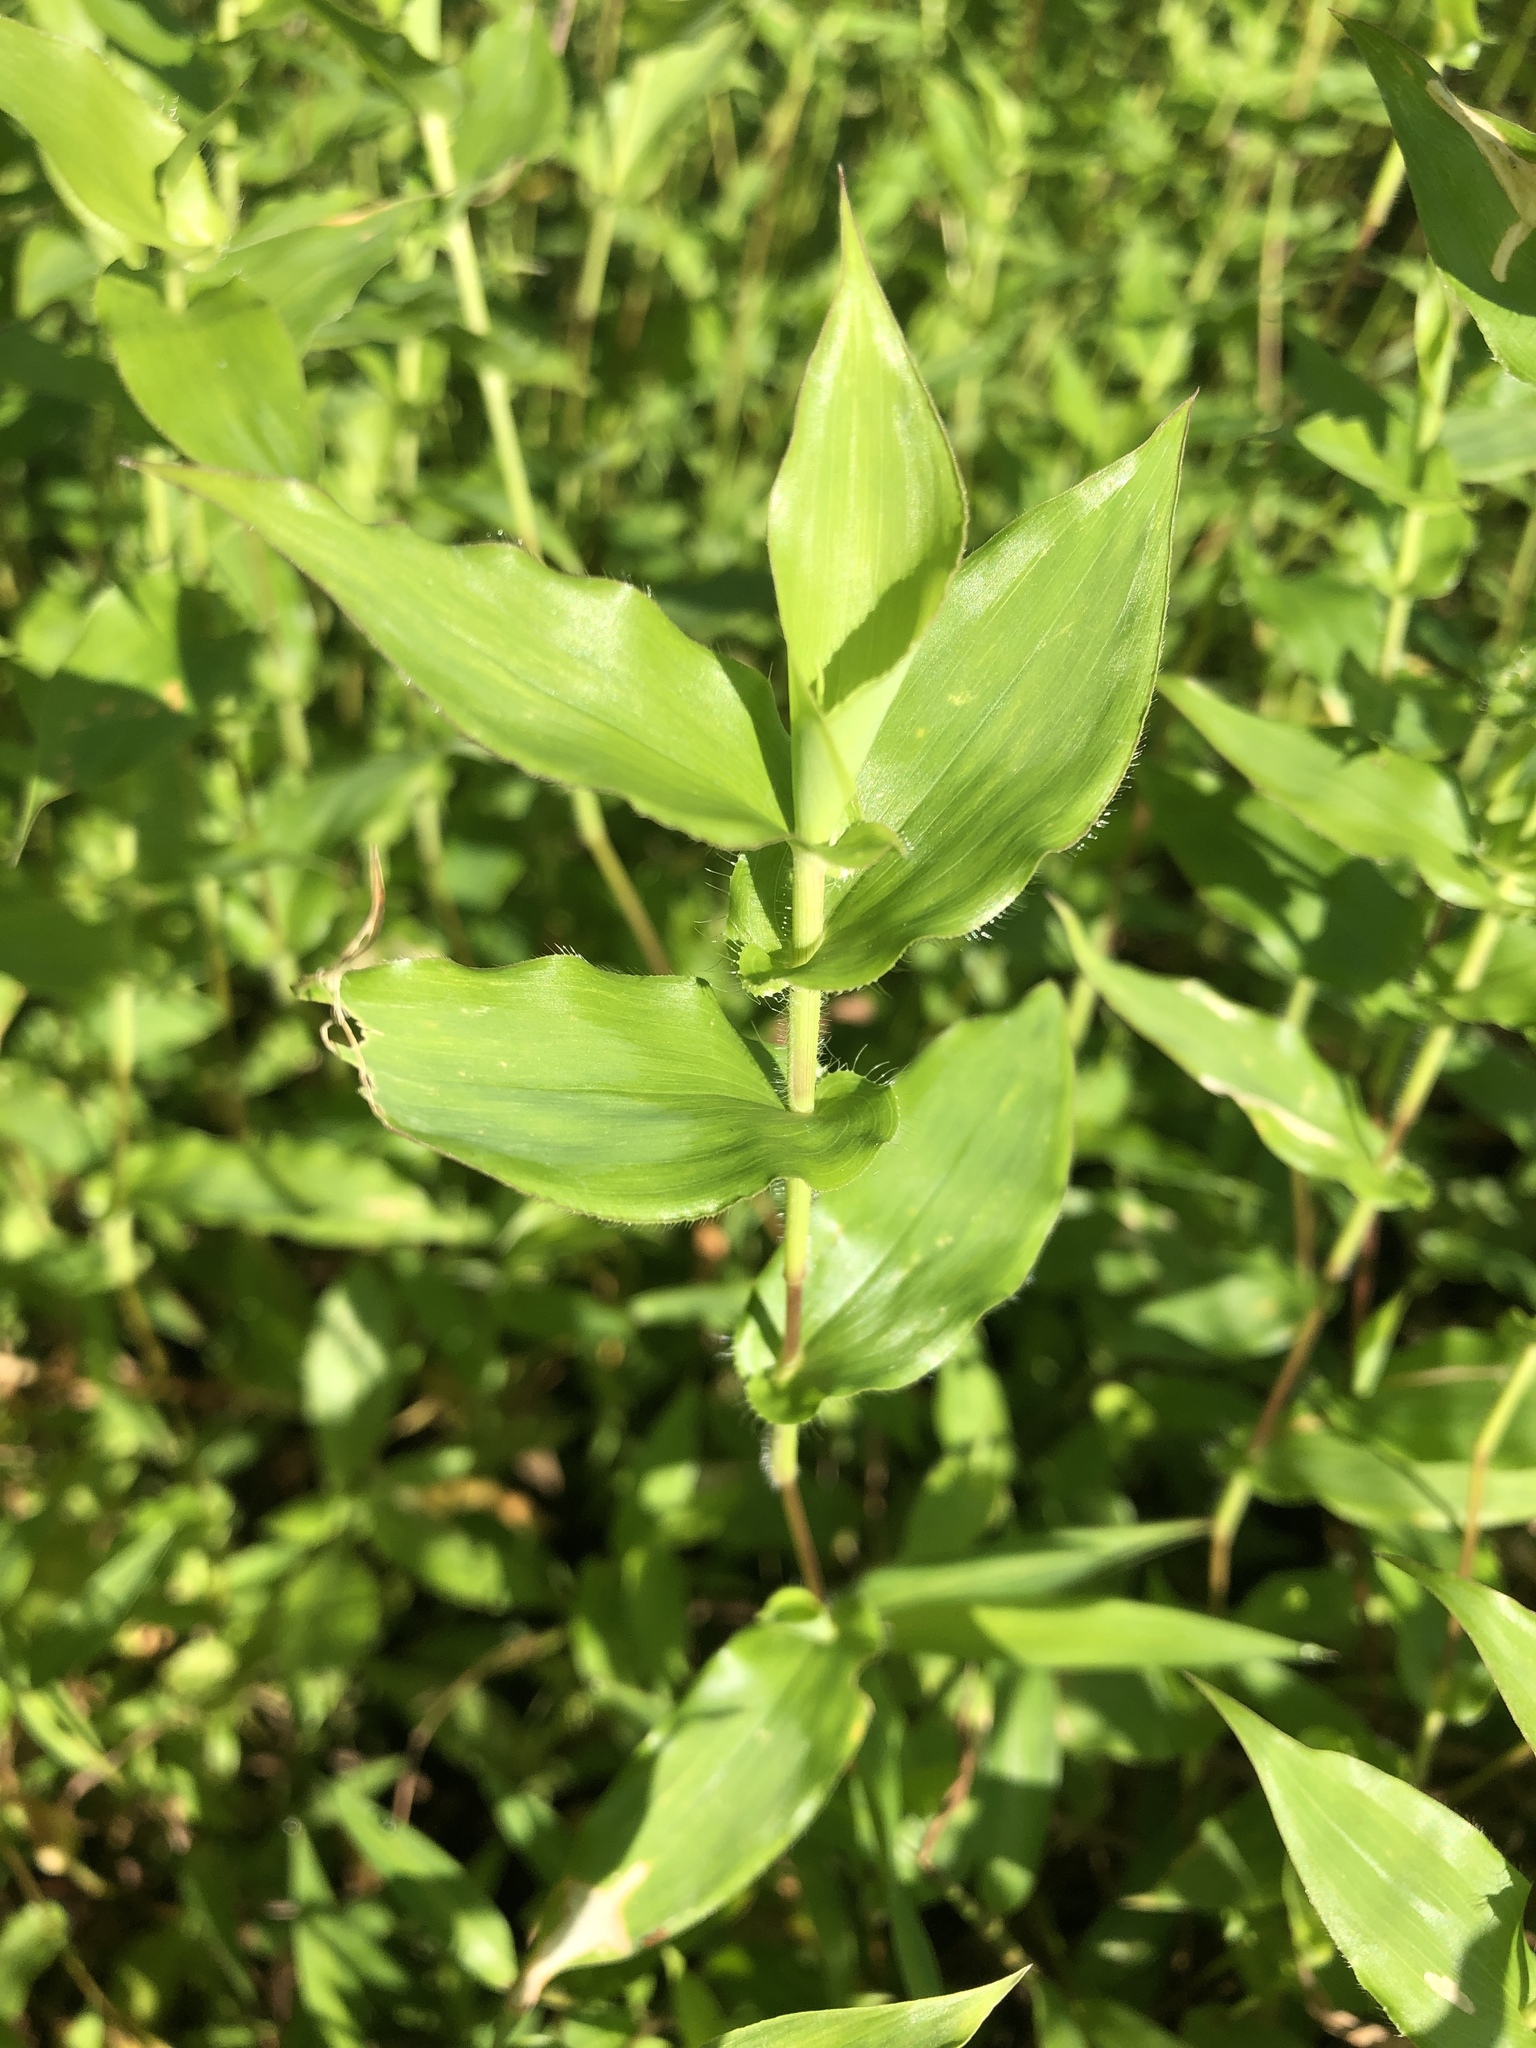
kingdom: Plantae
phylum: Tracheophyta
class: Liliopsida
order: Poales
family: Poaceae
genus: Arthraxon
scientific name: Arthraxon hispidus
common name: Small carpgrass
